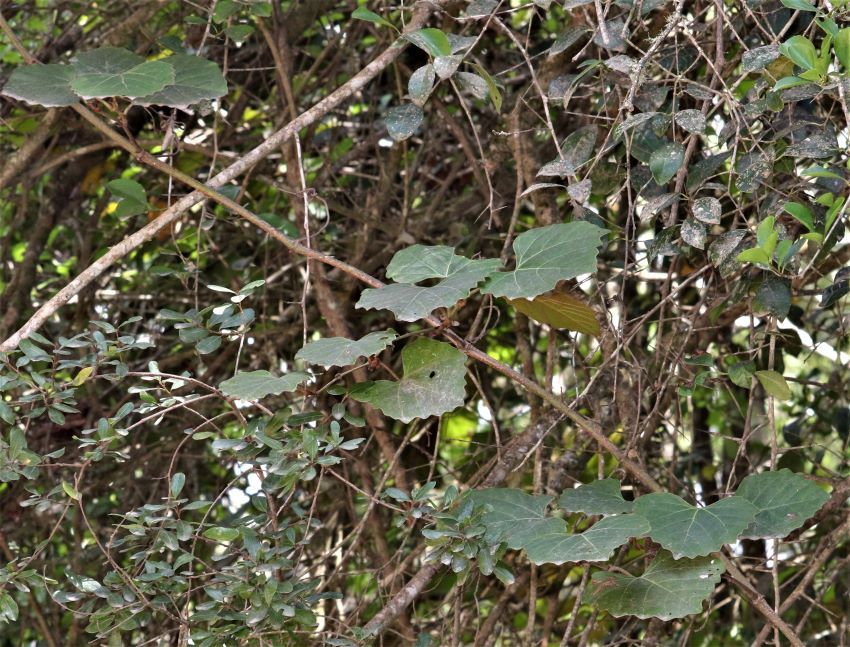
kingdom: Plantae
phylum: Tracheophyta
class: Magnoliopsida
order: Vitales
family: Vitaceae
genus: Rhoicissus
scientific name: Rhoicissus tomentosa
